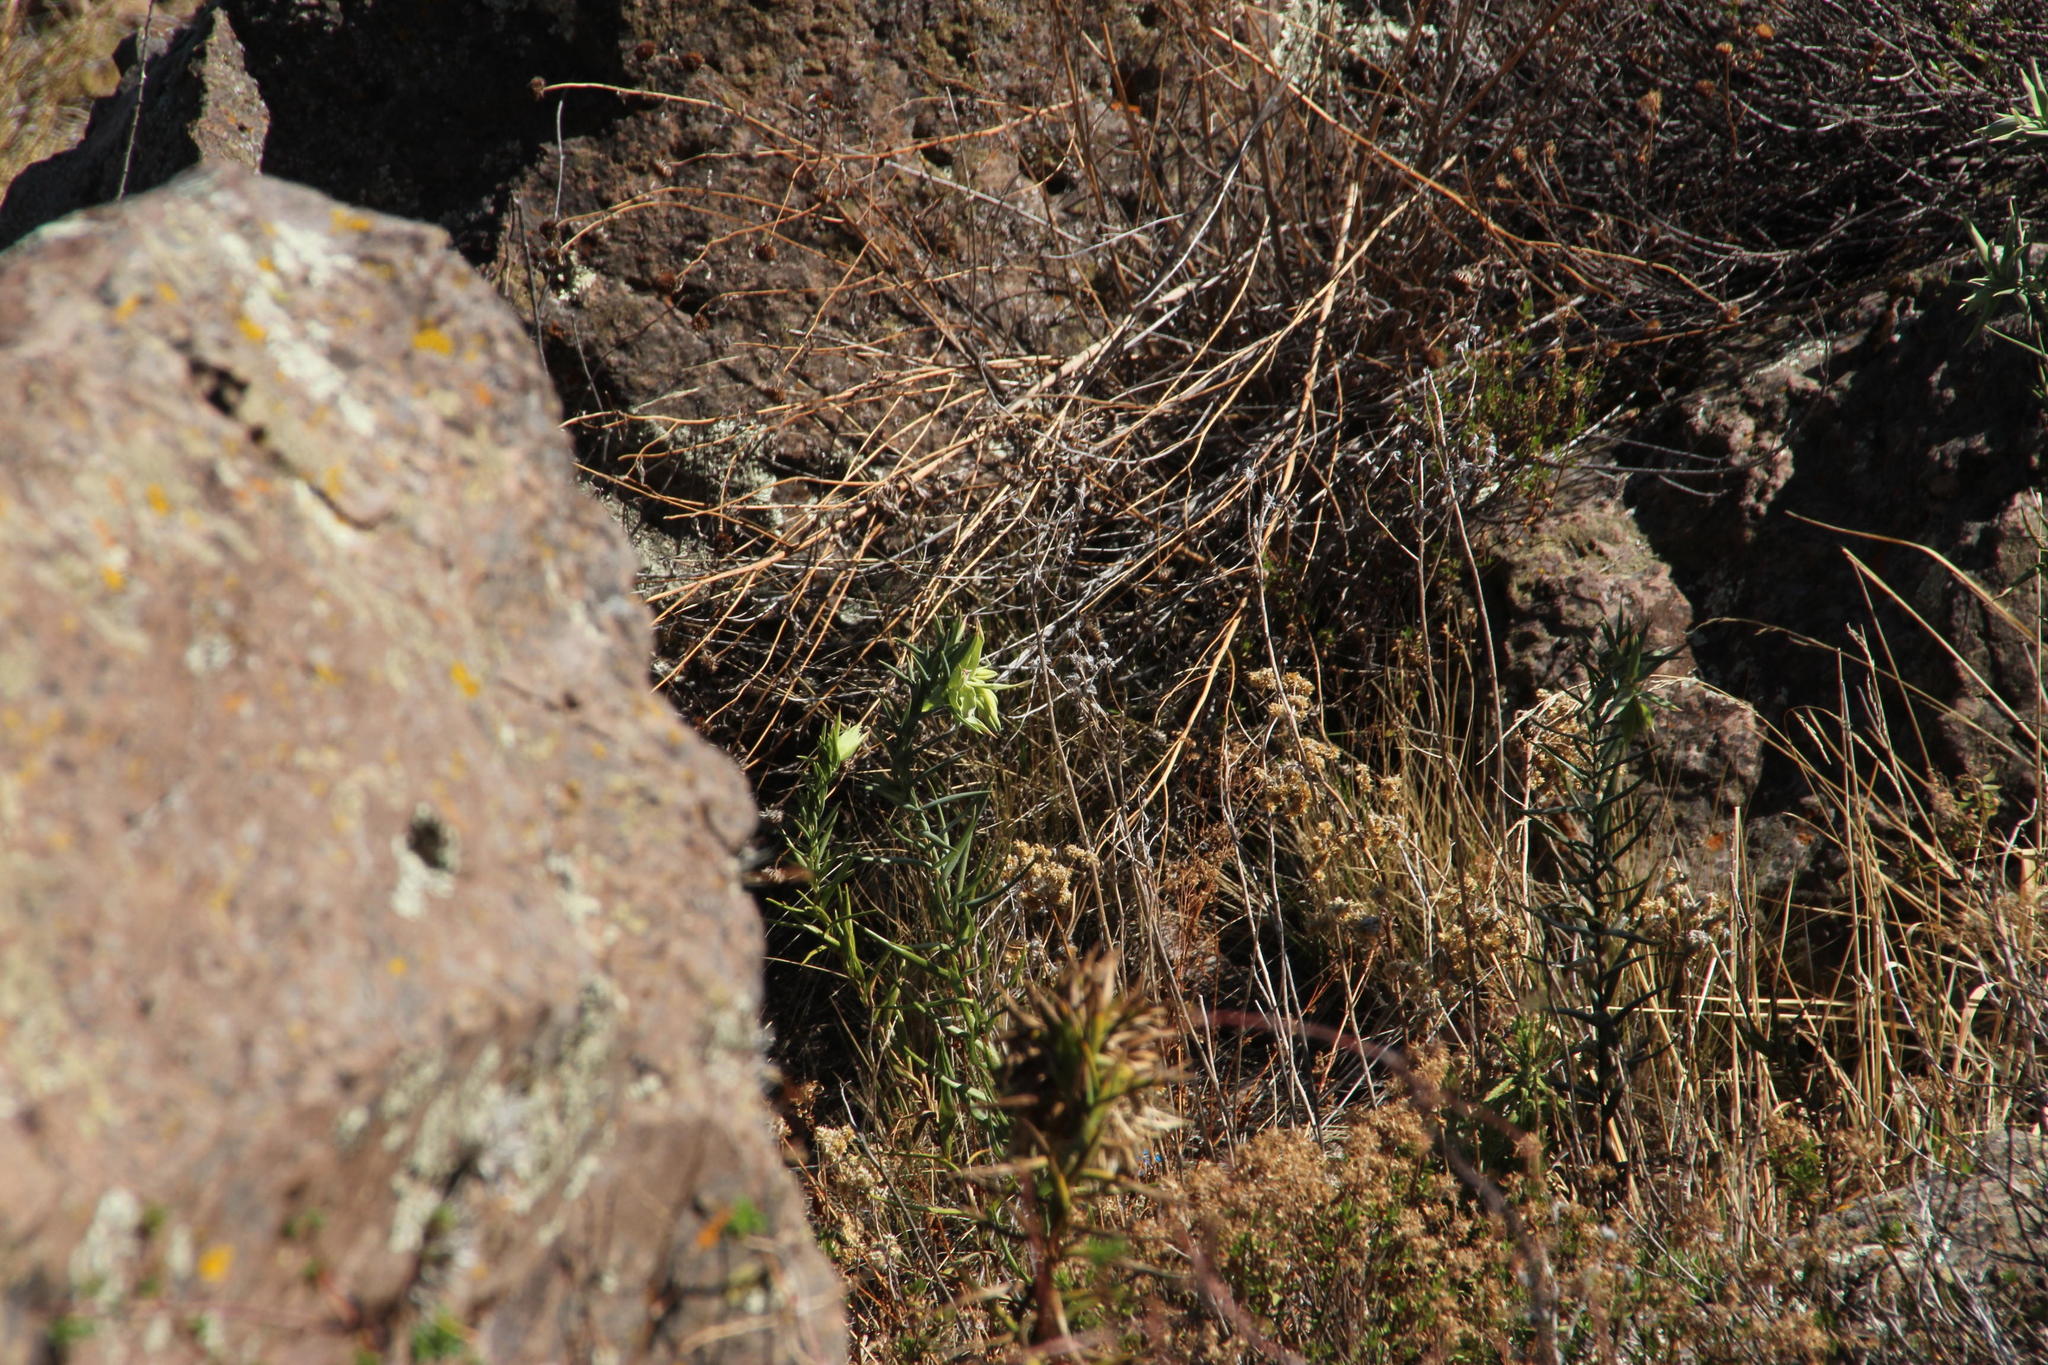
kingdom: Plantae
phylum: Tracheophyta
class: Liliopsida
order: Liliales
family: Alstroemeriaceae
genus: Bomarea
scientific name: Bomarea involucrosa
